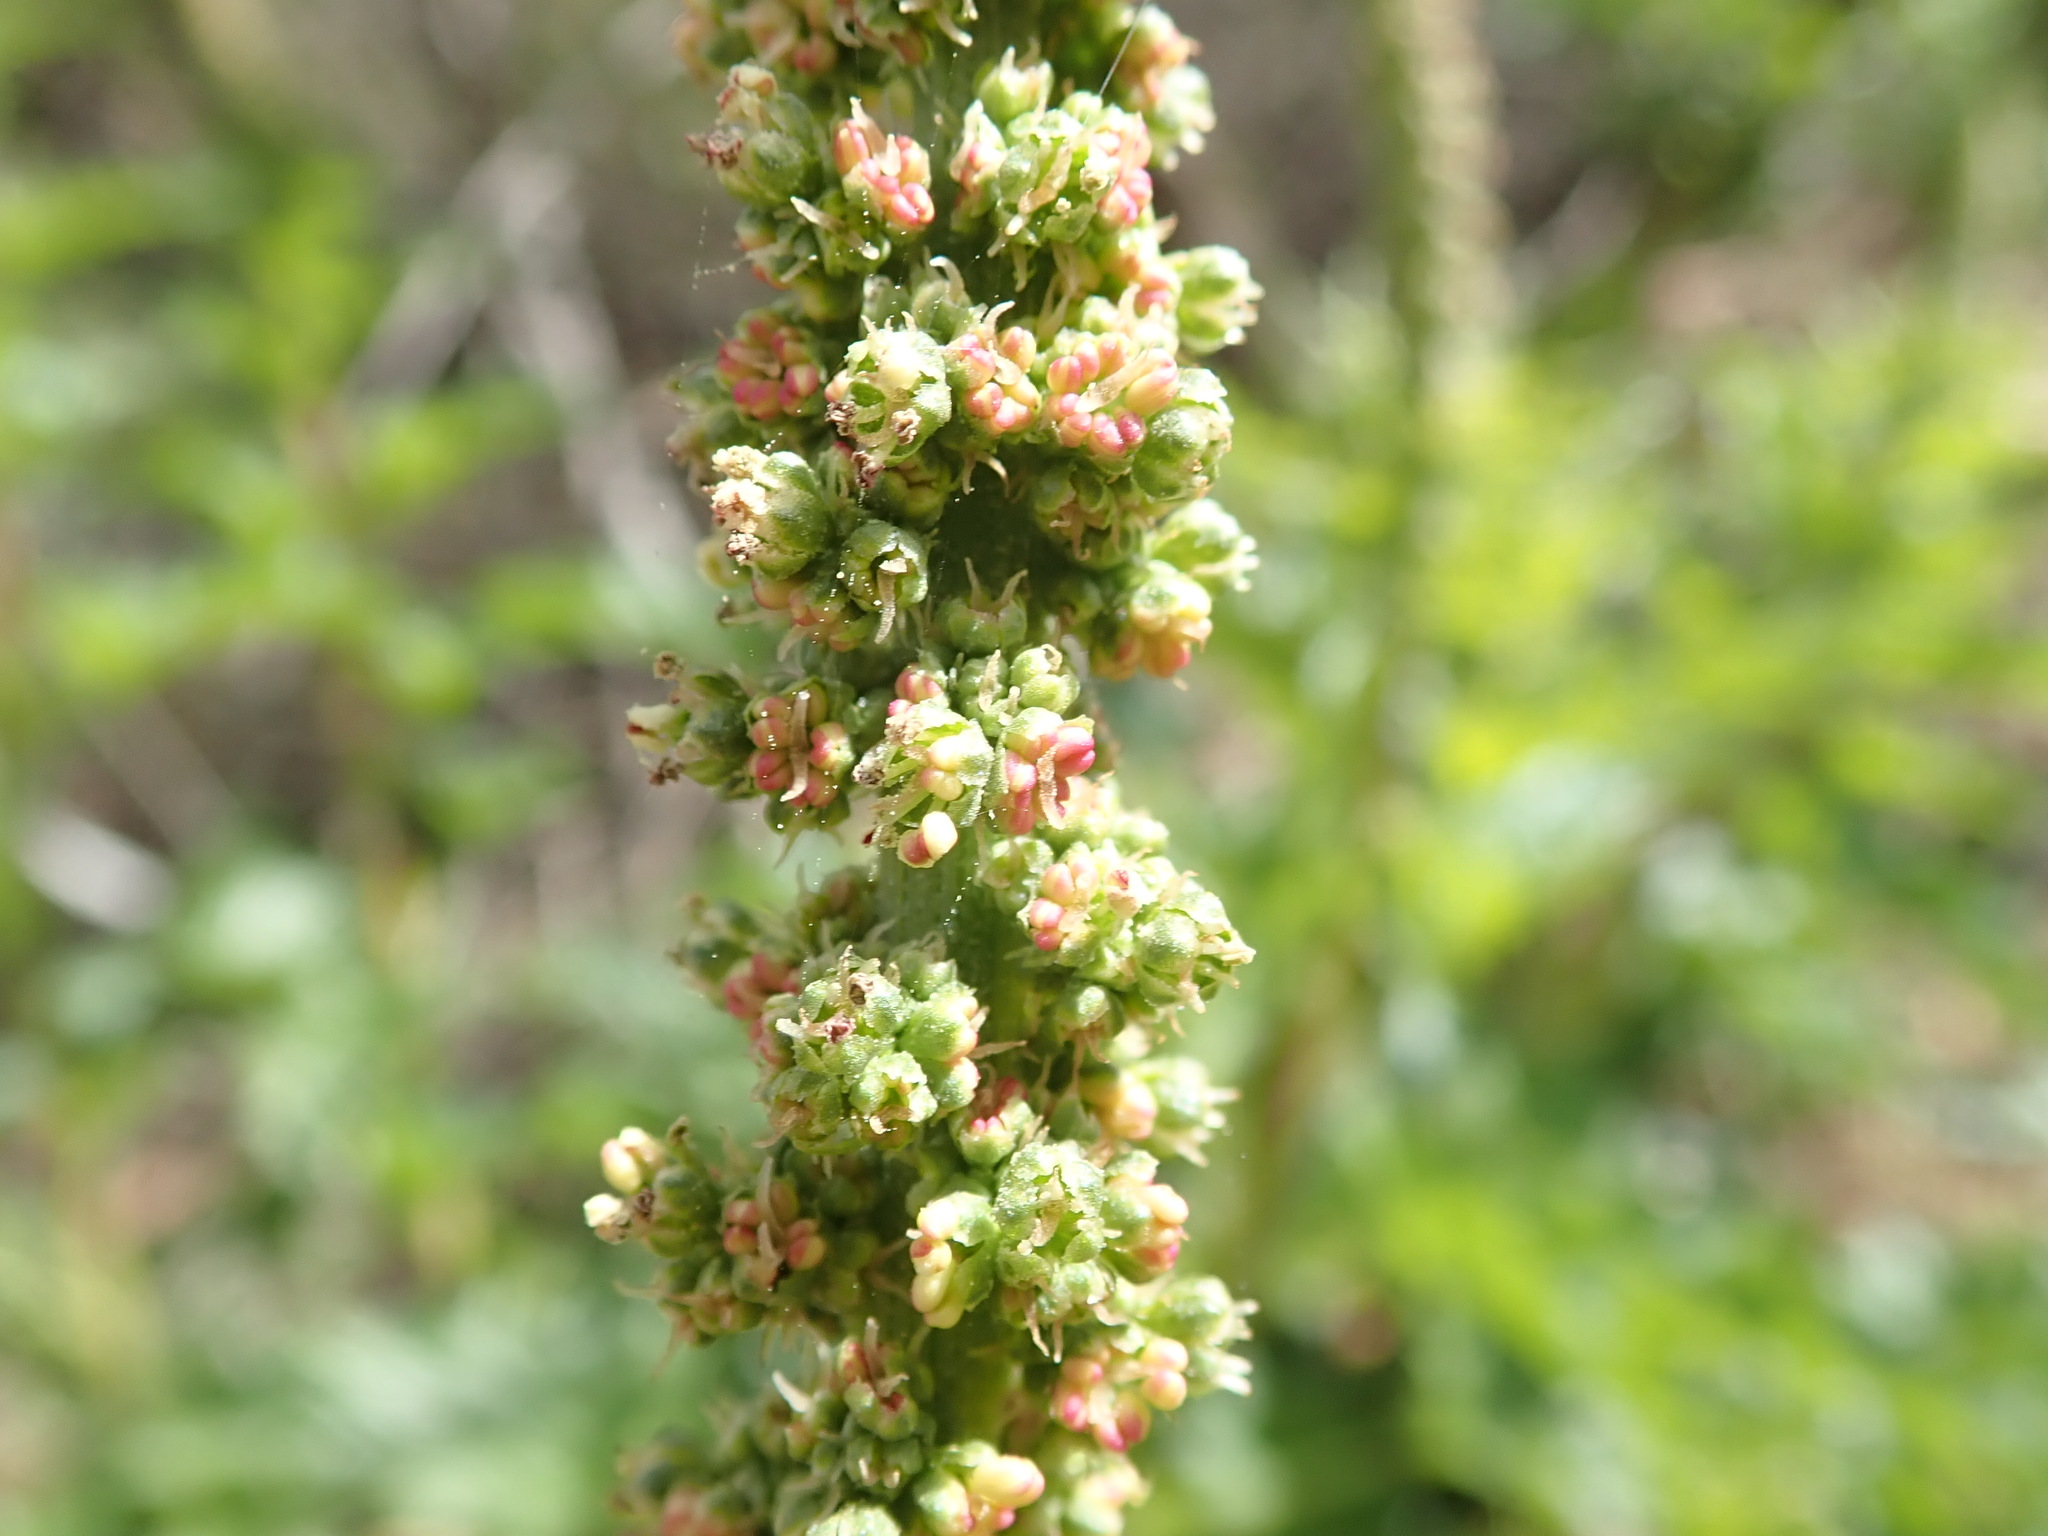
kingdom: Plantae
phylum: Tracheophyta
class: Magnoliopsida
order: Caryophyllales
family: Amaranthaceae
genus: Blitum
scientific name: Blitum californicum
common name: California goosefoot
